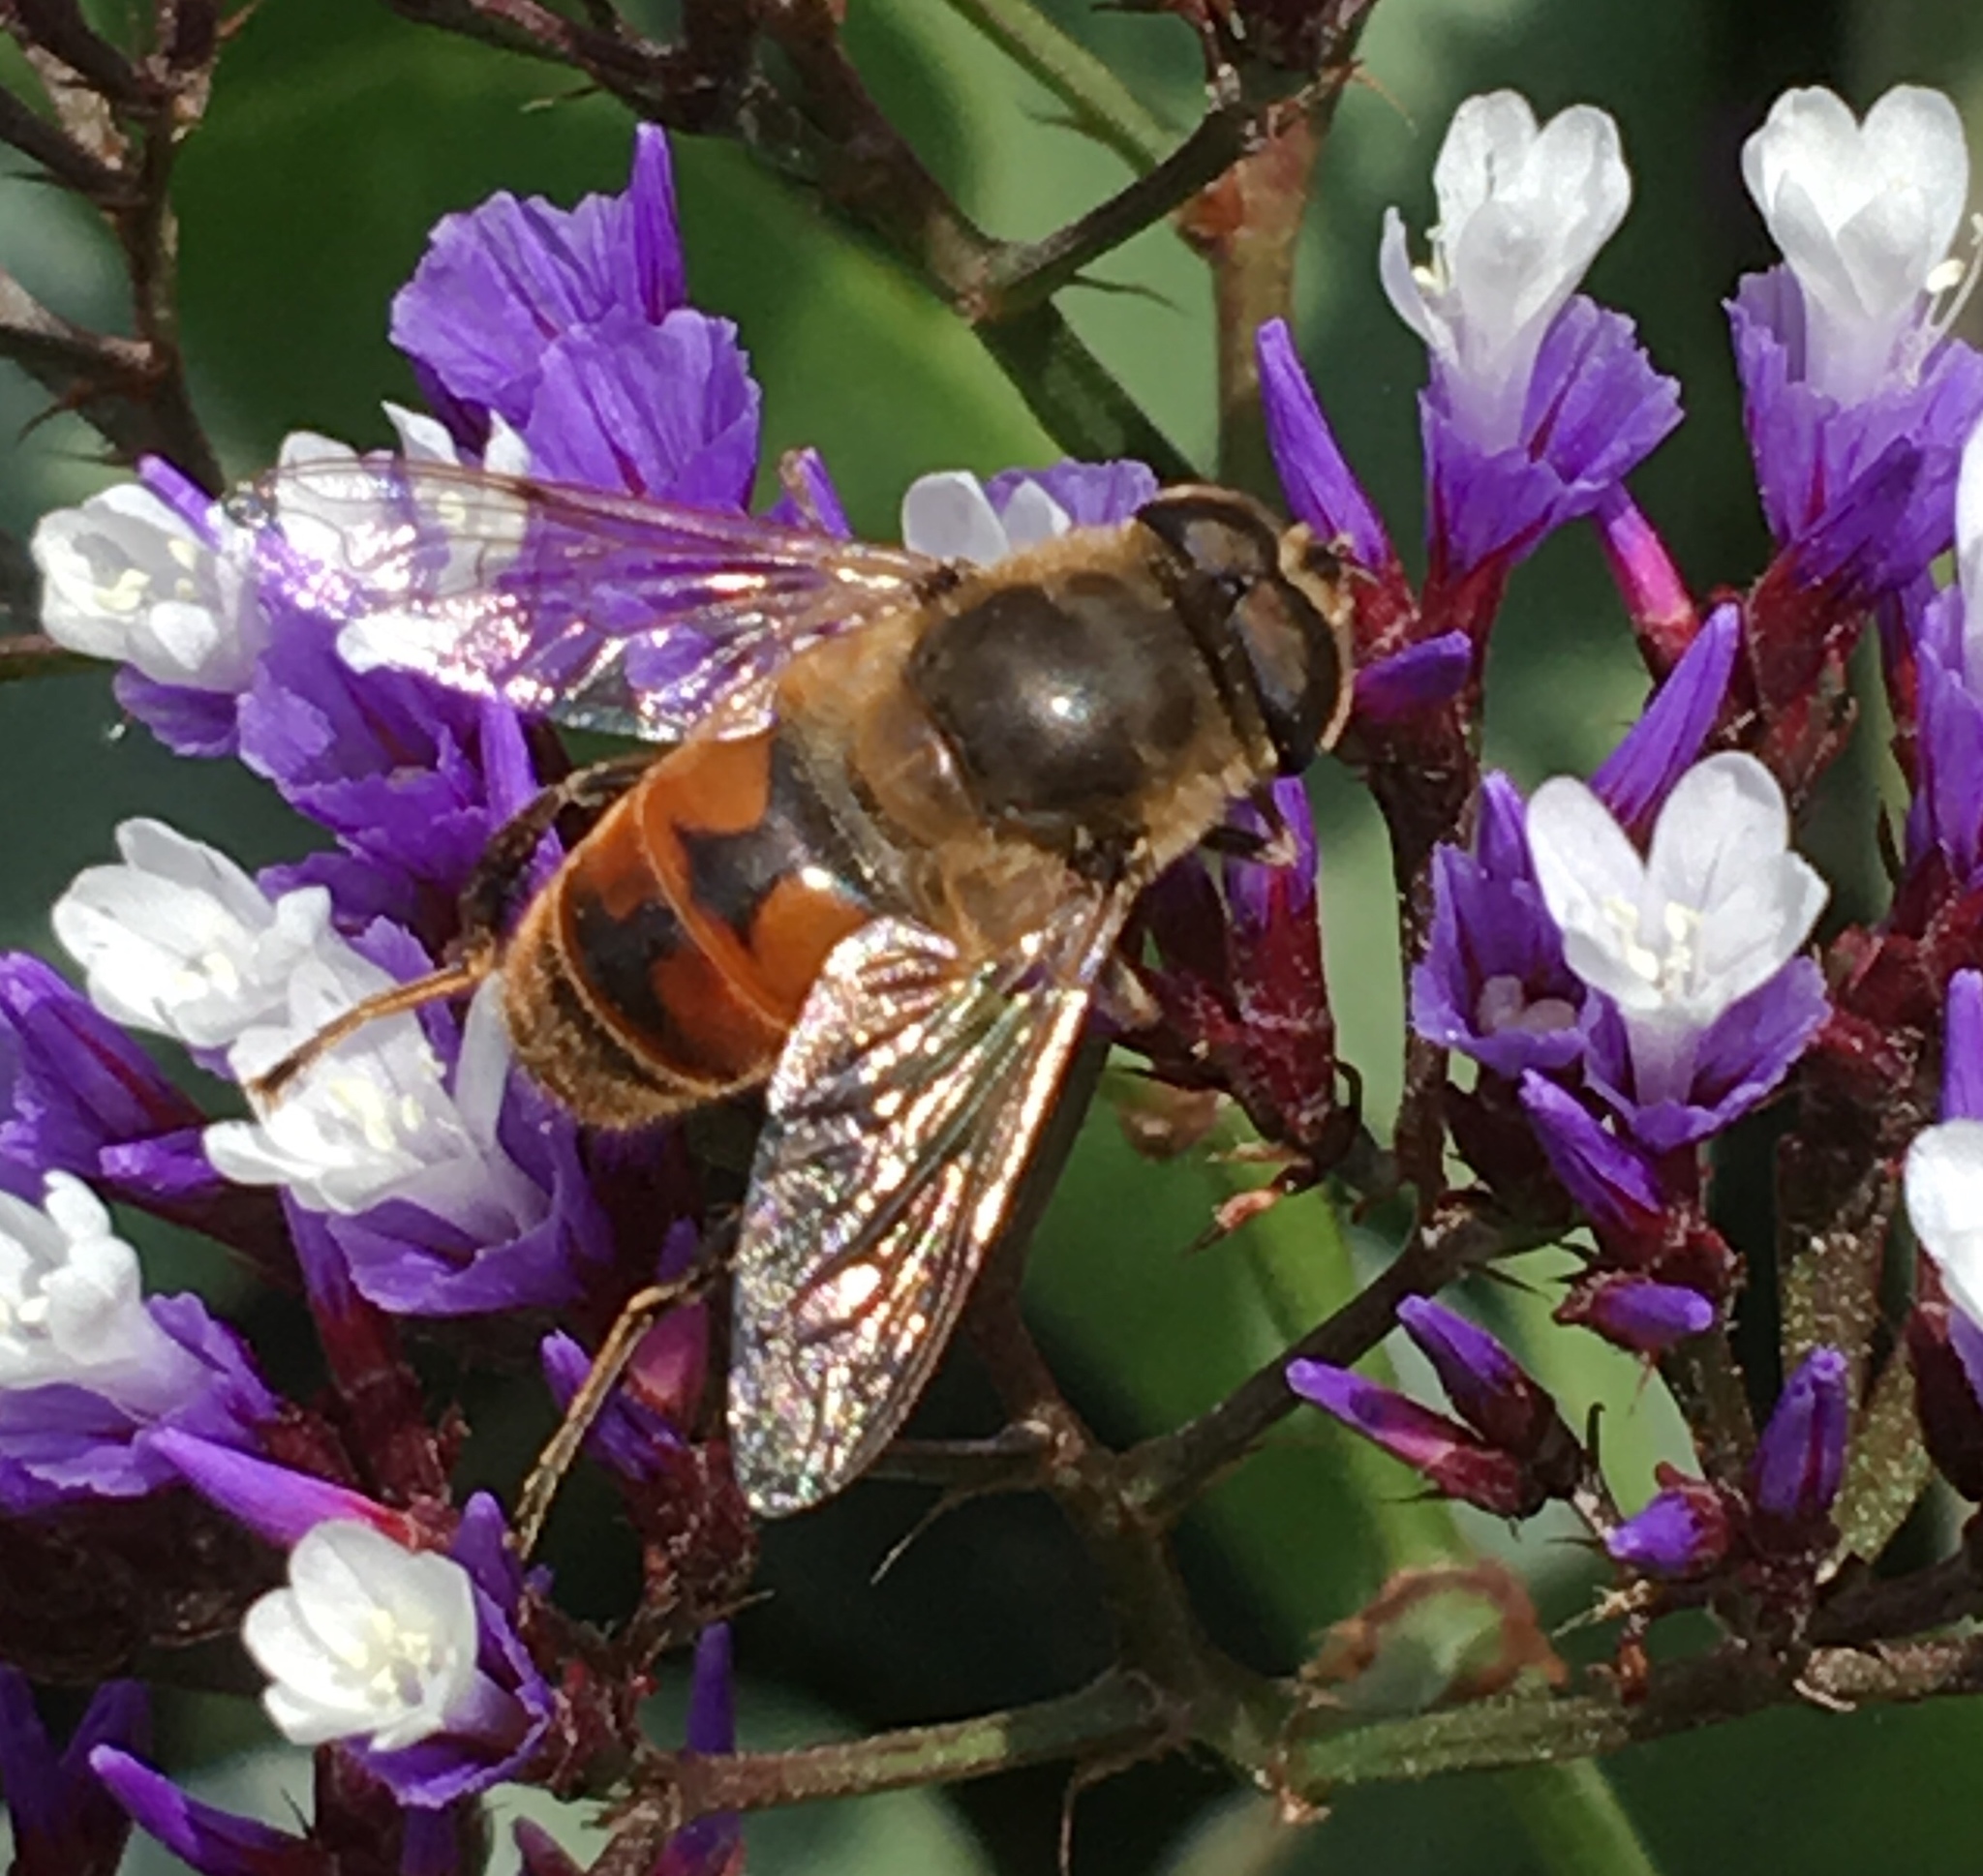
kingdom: Animalia
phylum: Arthropoda
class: Insecta
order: Diptera
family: Syrphidae
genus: Eristalis
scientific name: Eristalis tenax
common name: Drone fly
